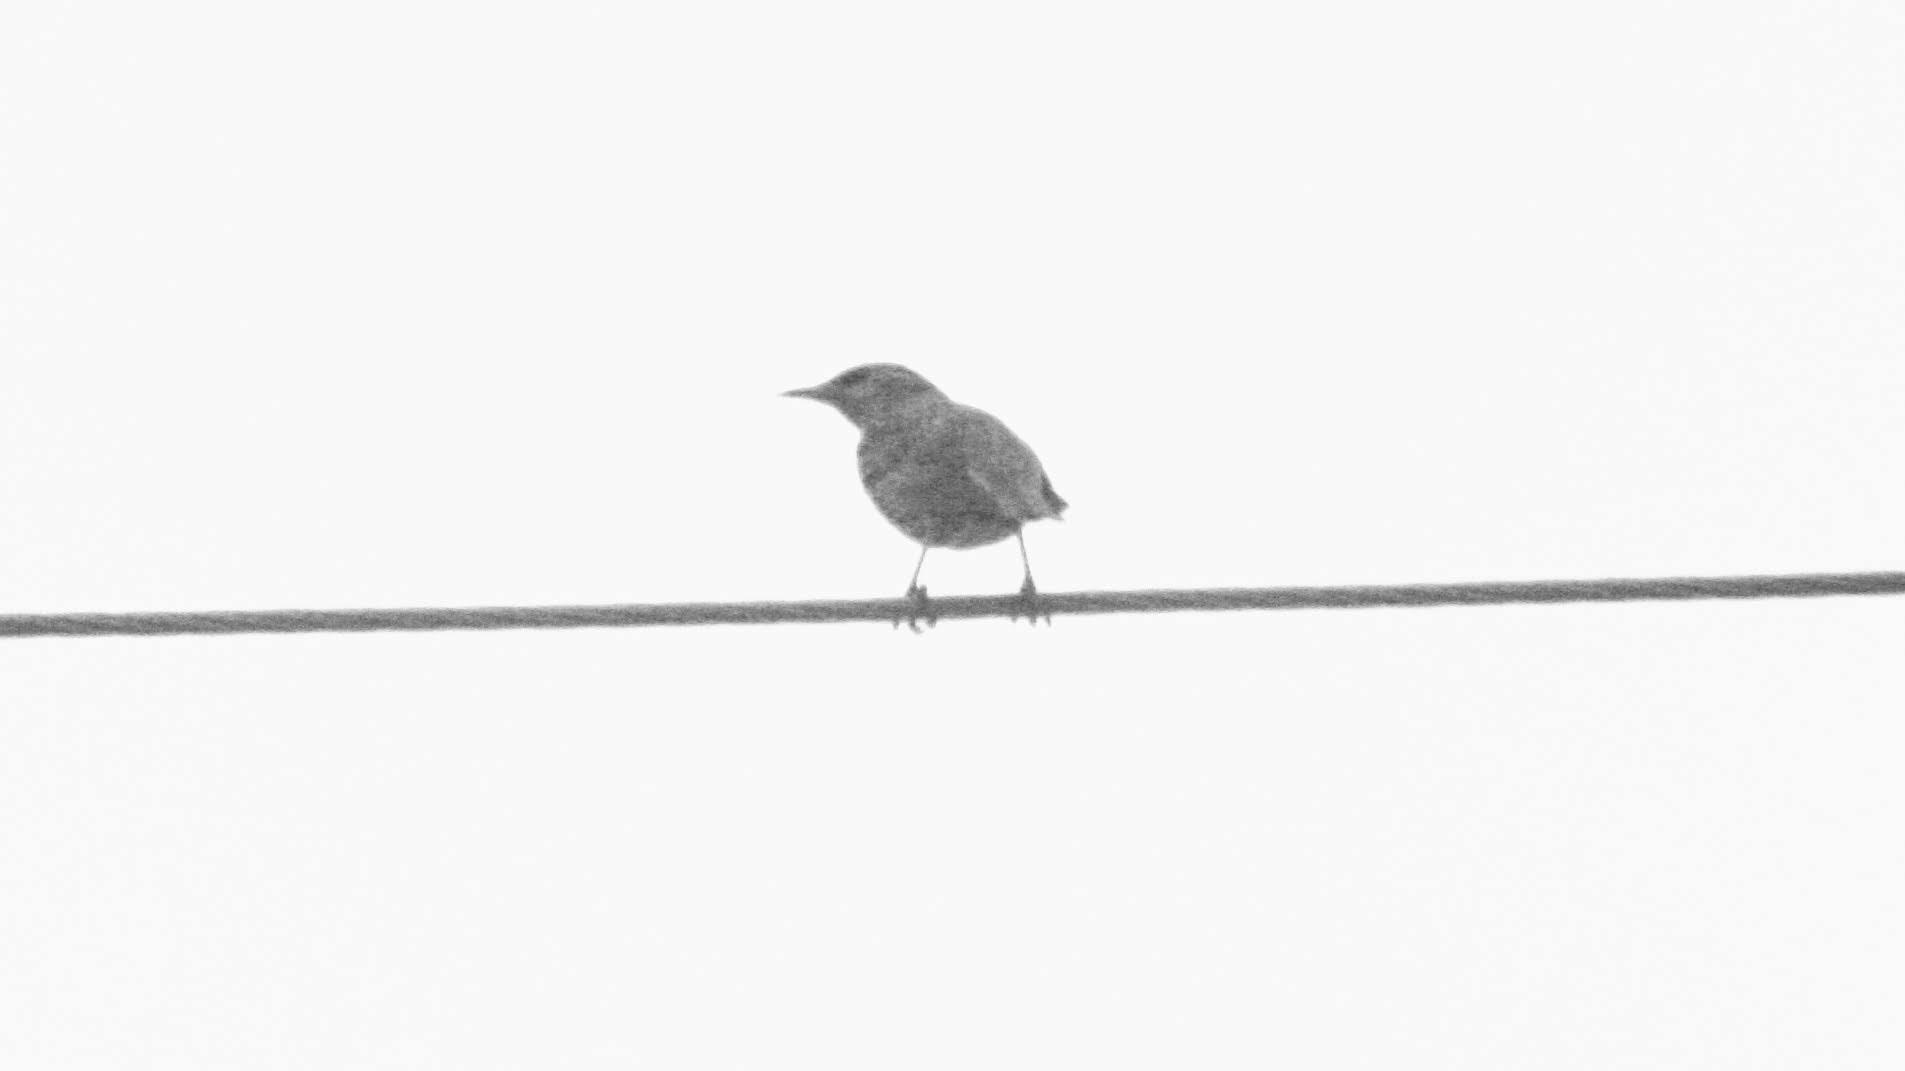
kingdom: Animalia
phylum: Chordata
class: Aves
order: Passeriformes
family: Sturnidae
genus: Sturnus
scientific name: Sturnus vulgaris
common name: Common starling
